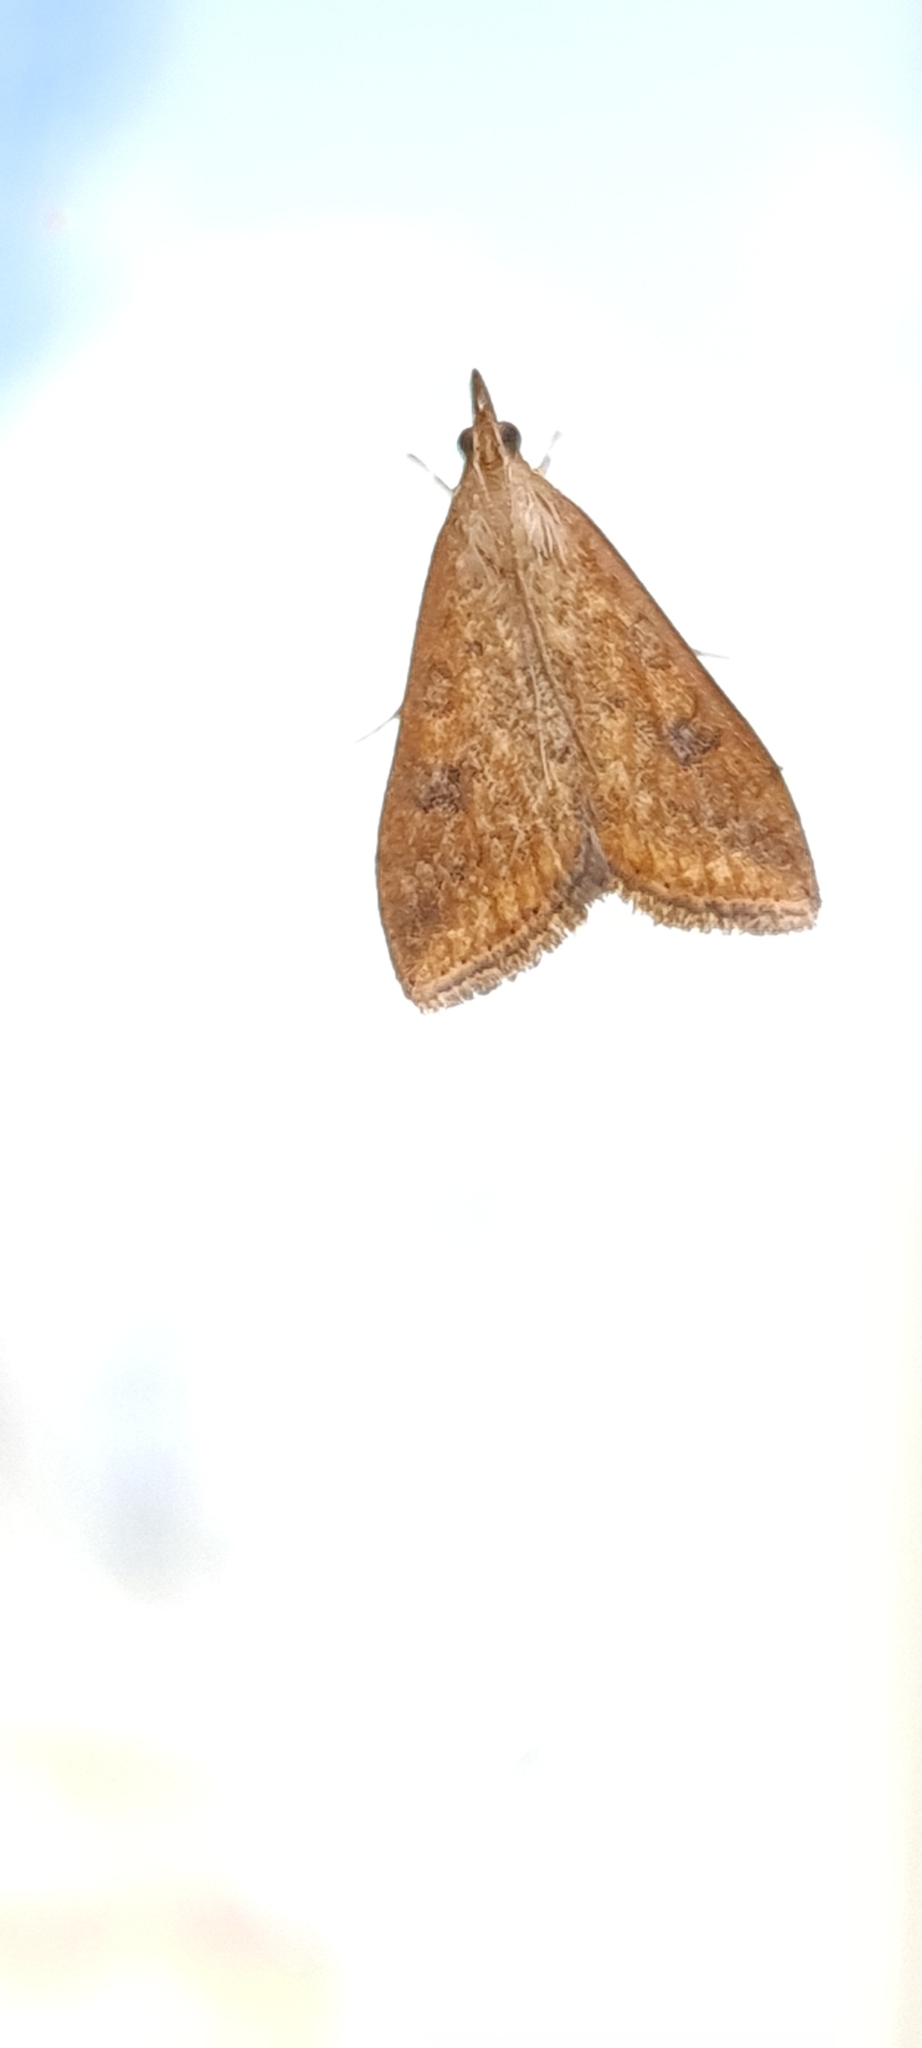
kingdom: Animalia
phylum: Arthropoda
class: Insecta
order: Lepidoptera
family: Crambidae
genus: Udea
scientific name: Udea ferrugalis
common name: Rusty dot
